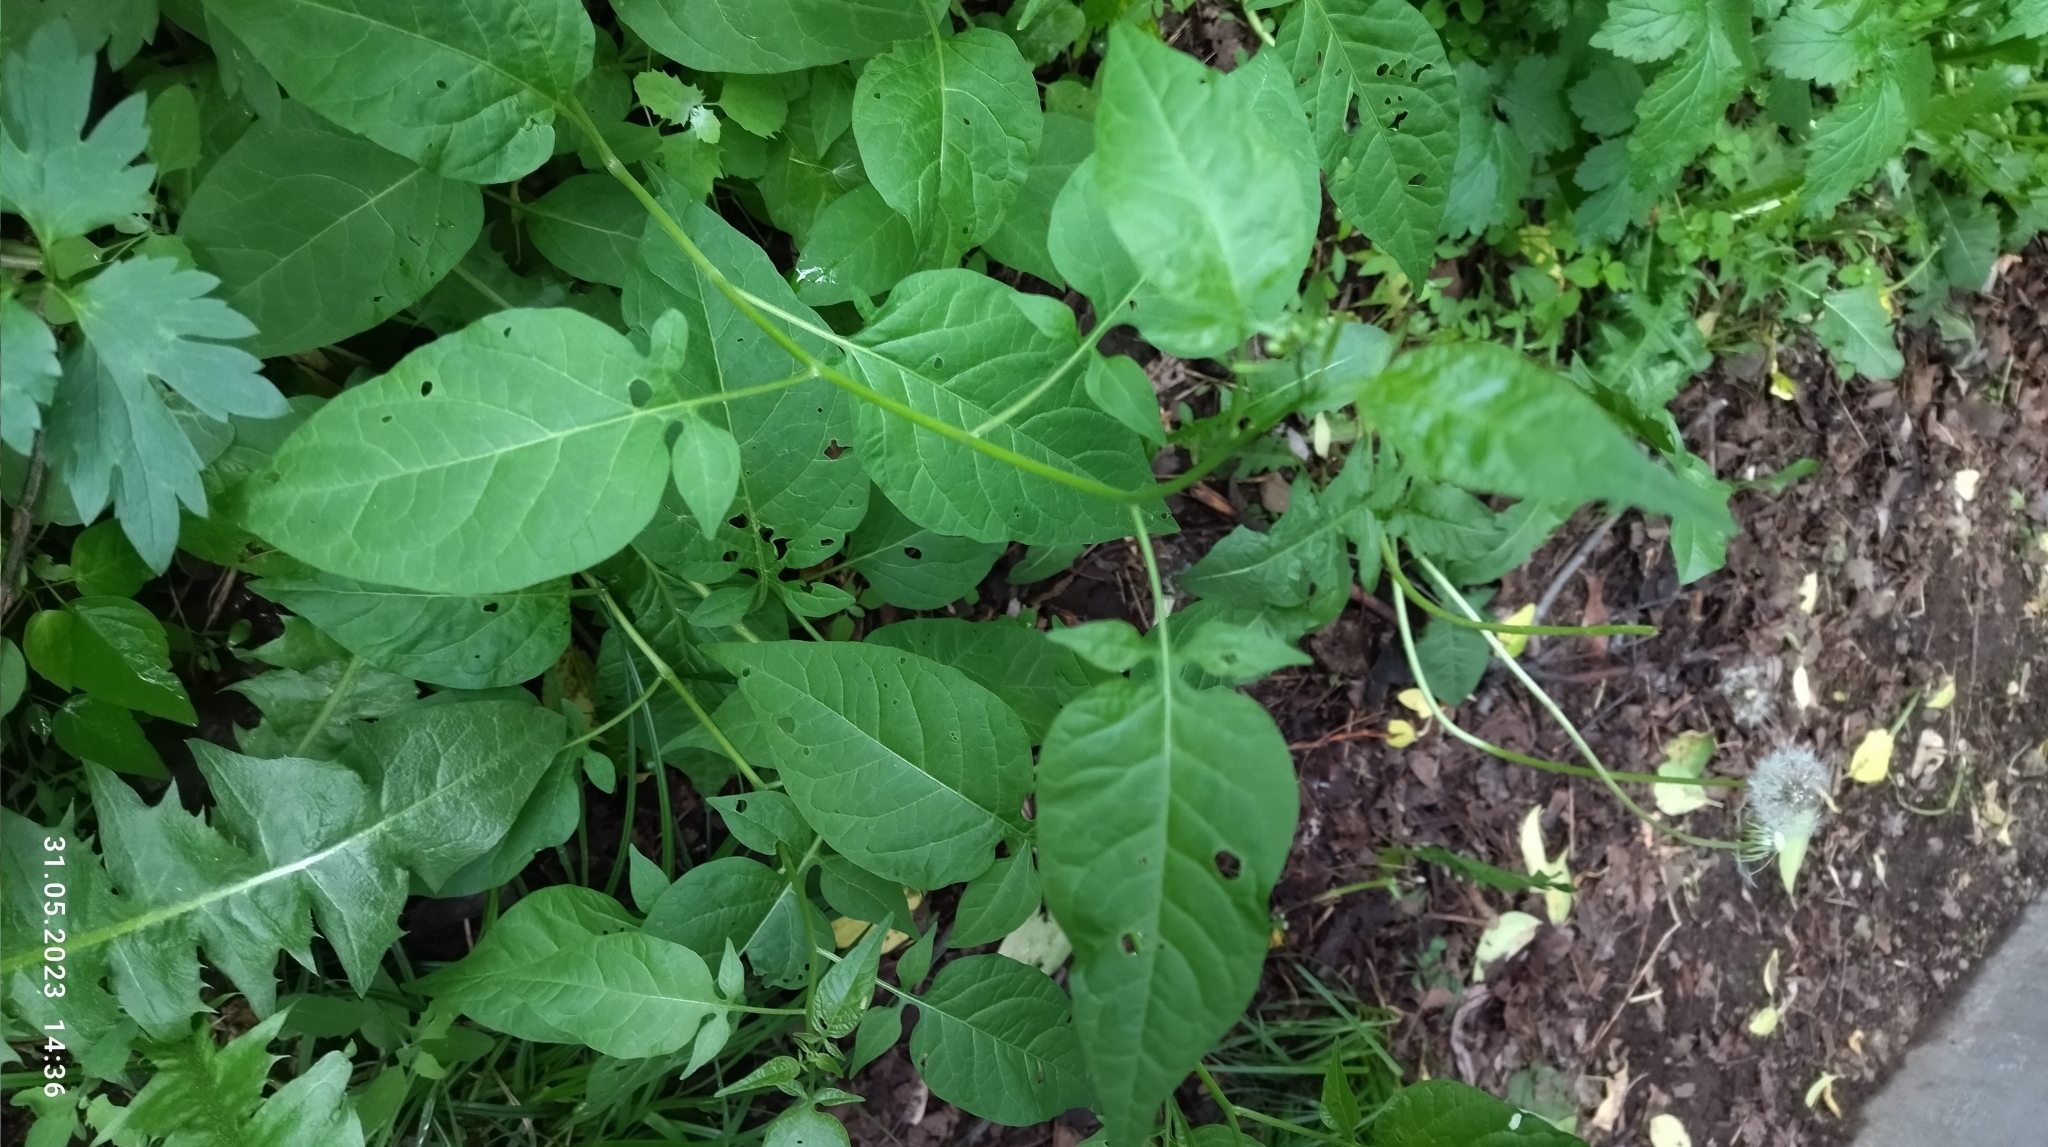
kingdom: Plantae
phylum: Tracheophyta
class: Magnoliopsida
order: Solanales
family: Solanaceae
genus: Solanum
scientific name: Solanum dulcamara
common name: Climbing nightshade
